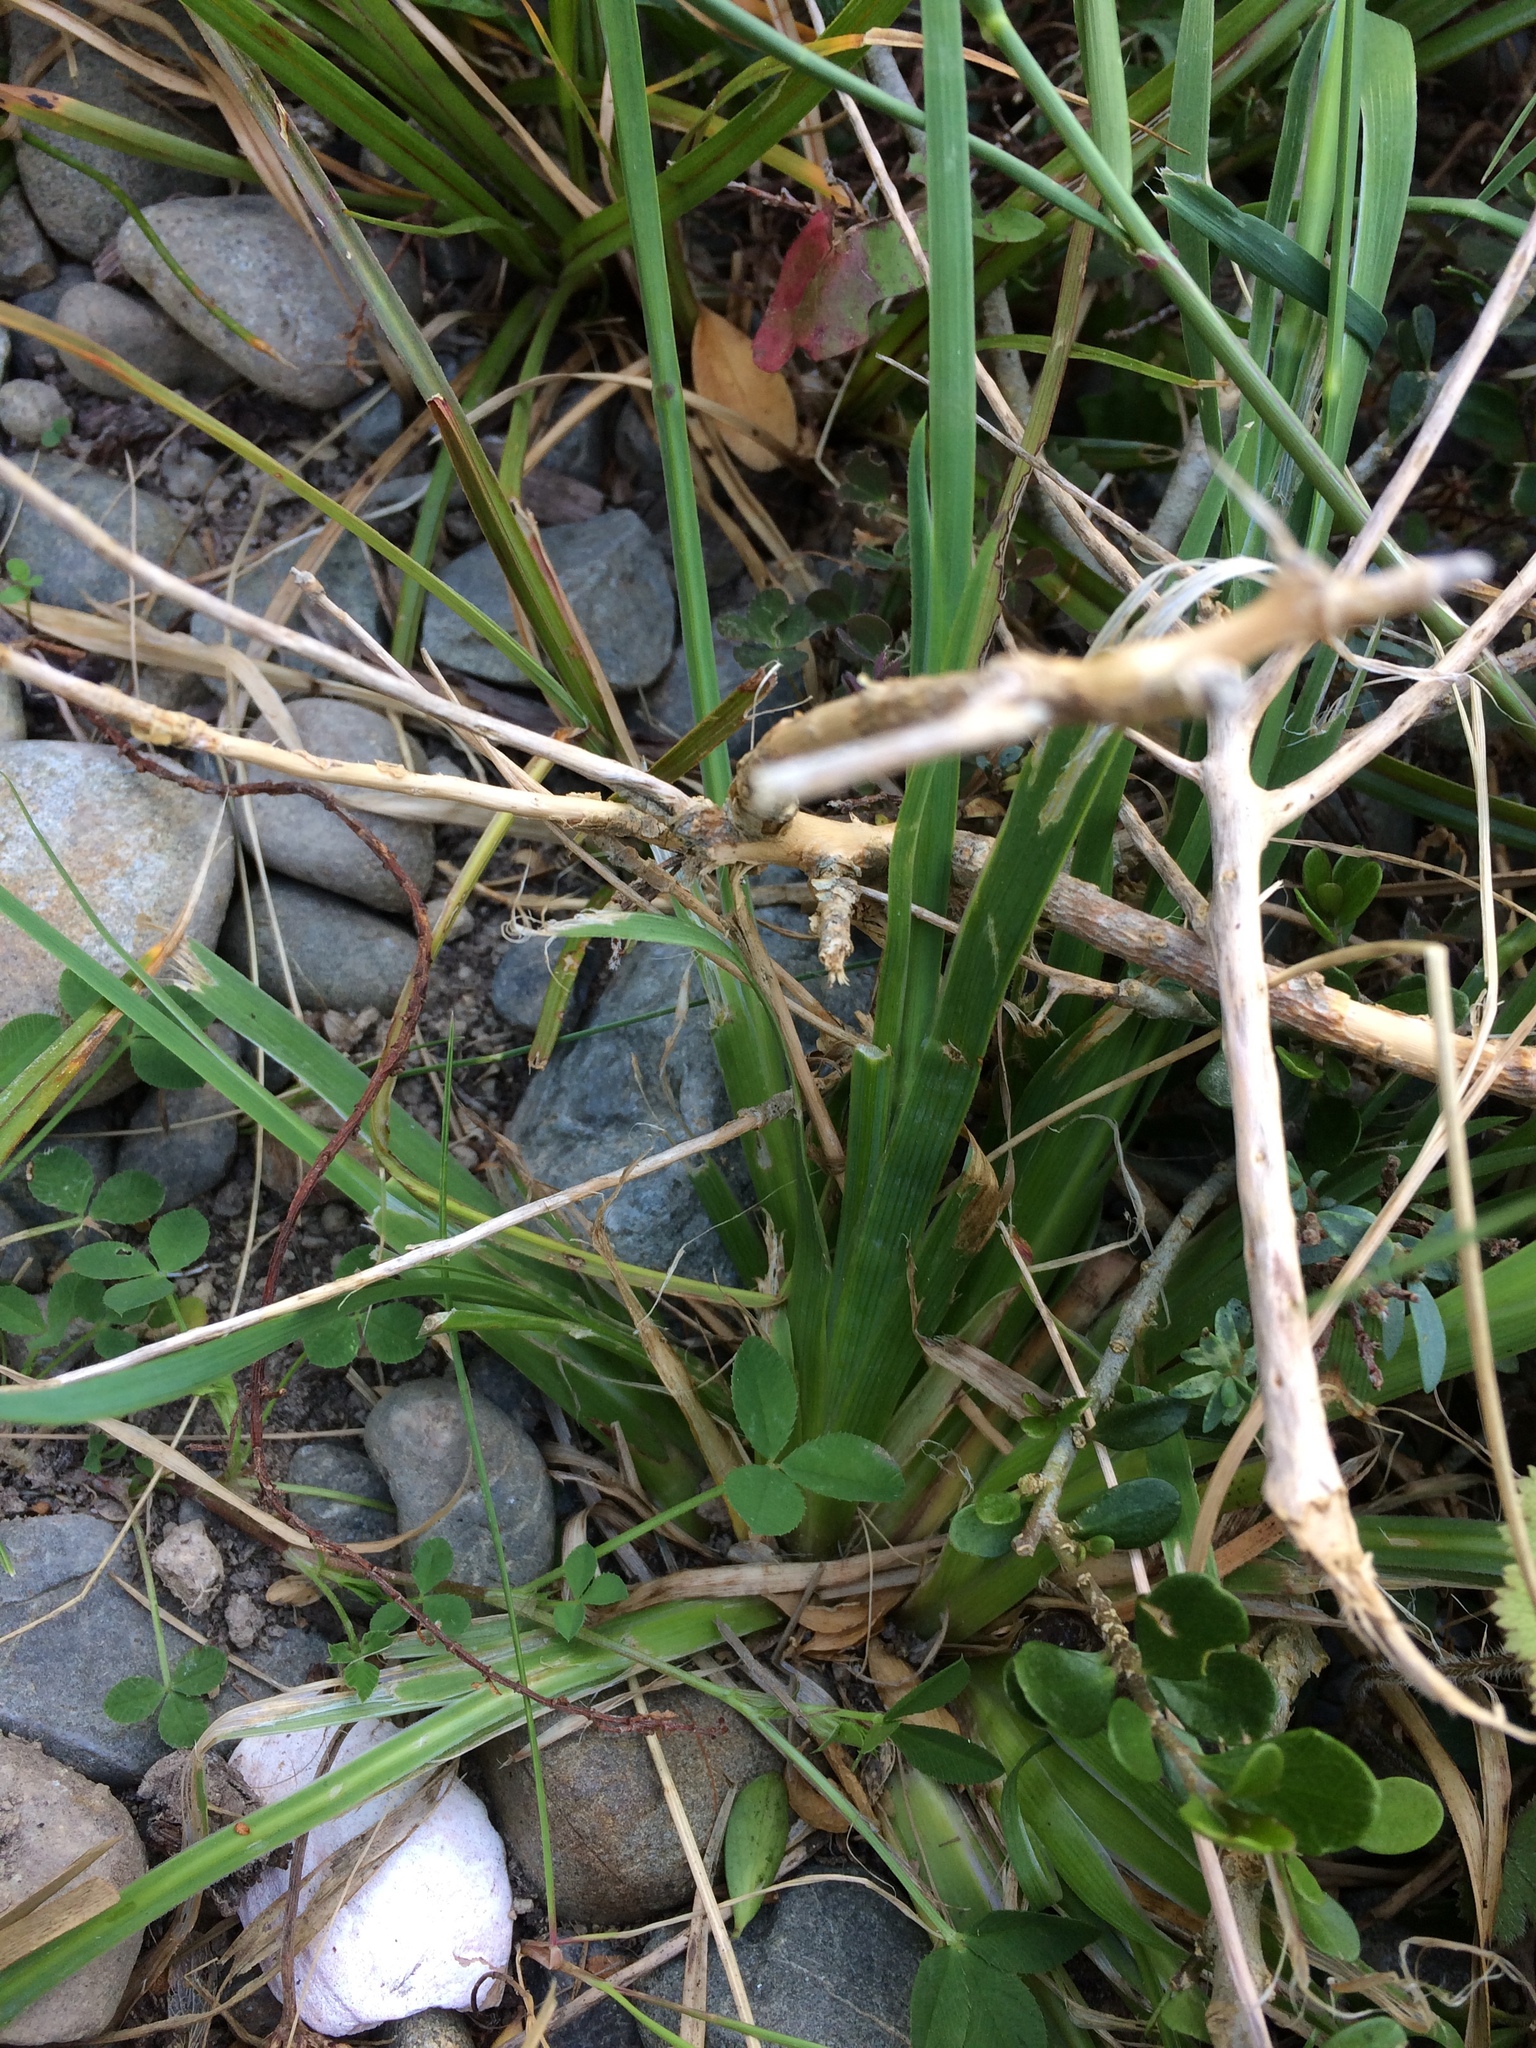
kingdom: Plantae
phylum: Tracheophyta
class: Liliopsida
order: Asparagales
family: Iridaceae
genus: Sisyrinchium
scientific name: Sisyrinchium micranthum
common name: Bermuda pigroot
